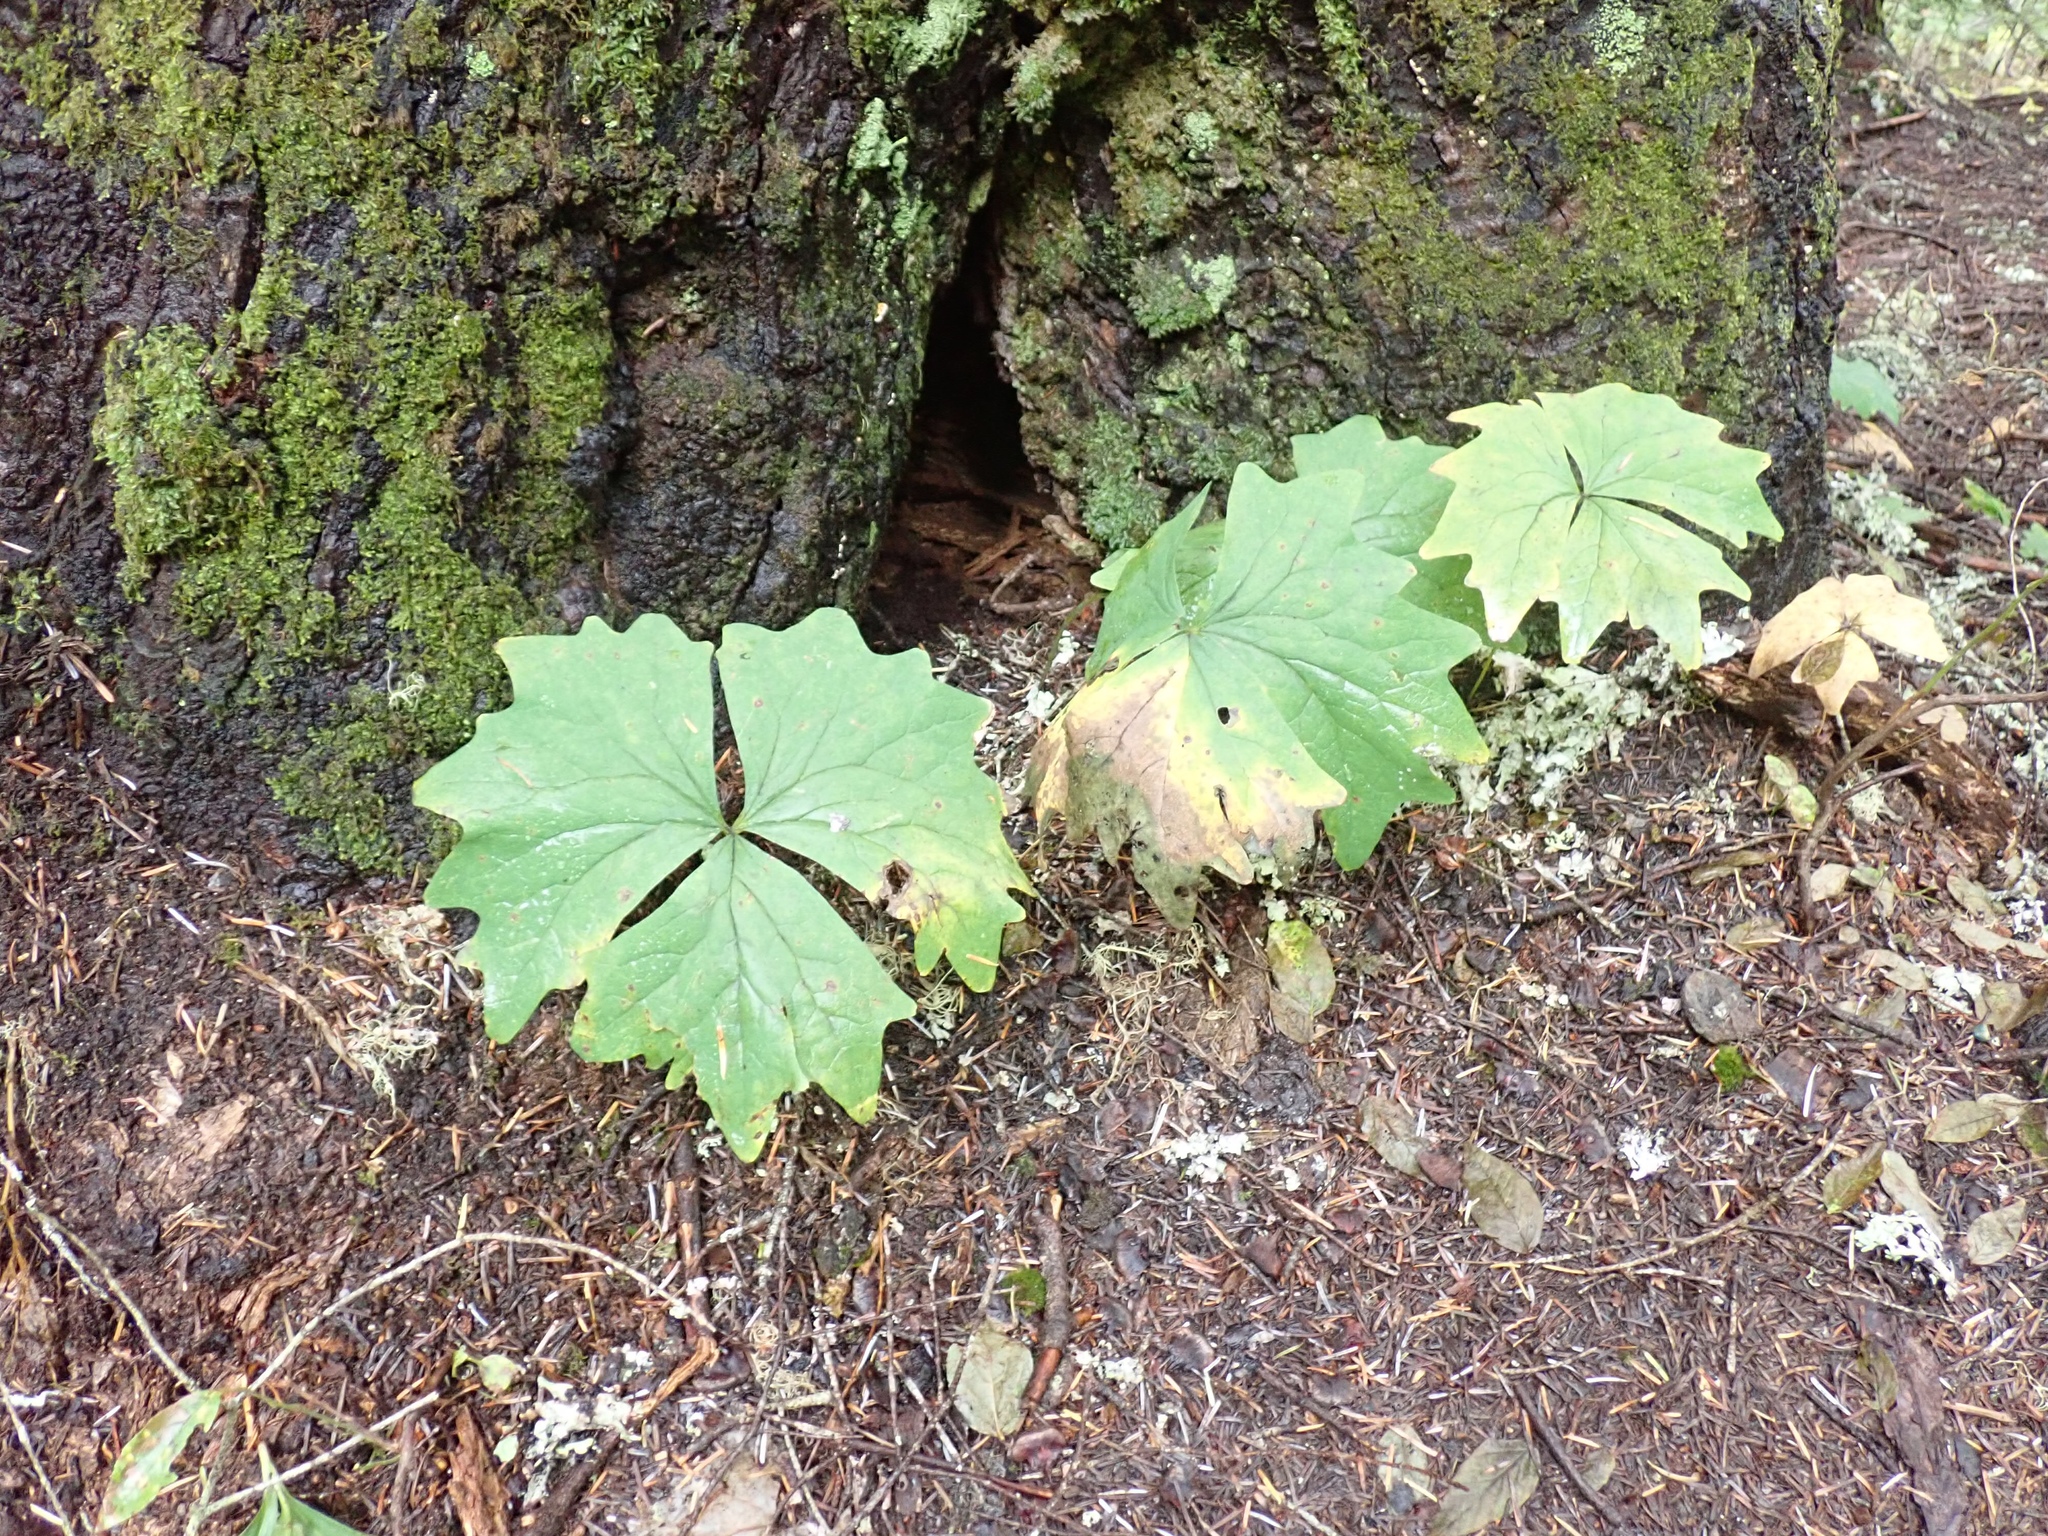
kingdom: Plantae
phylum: Tracheophyta
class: Magnoliopsida
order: Ranunculales
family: Berberidaceae
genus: Achlys
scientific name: Achlys triphylla
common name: Vanilla-leaf
